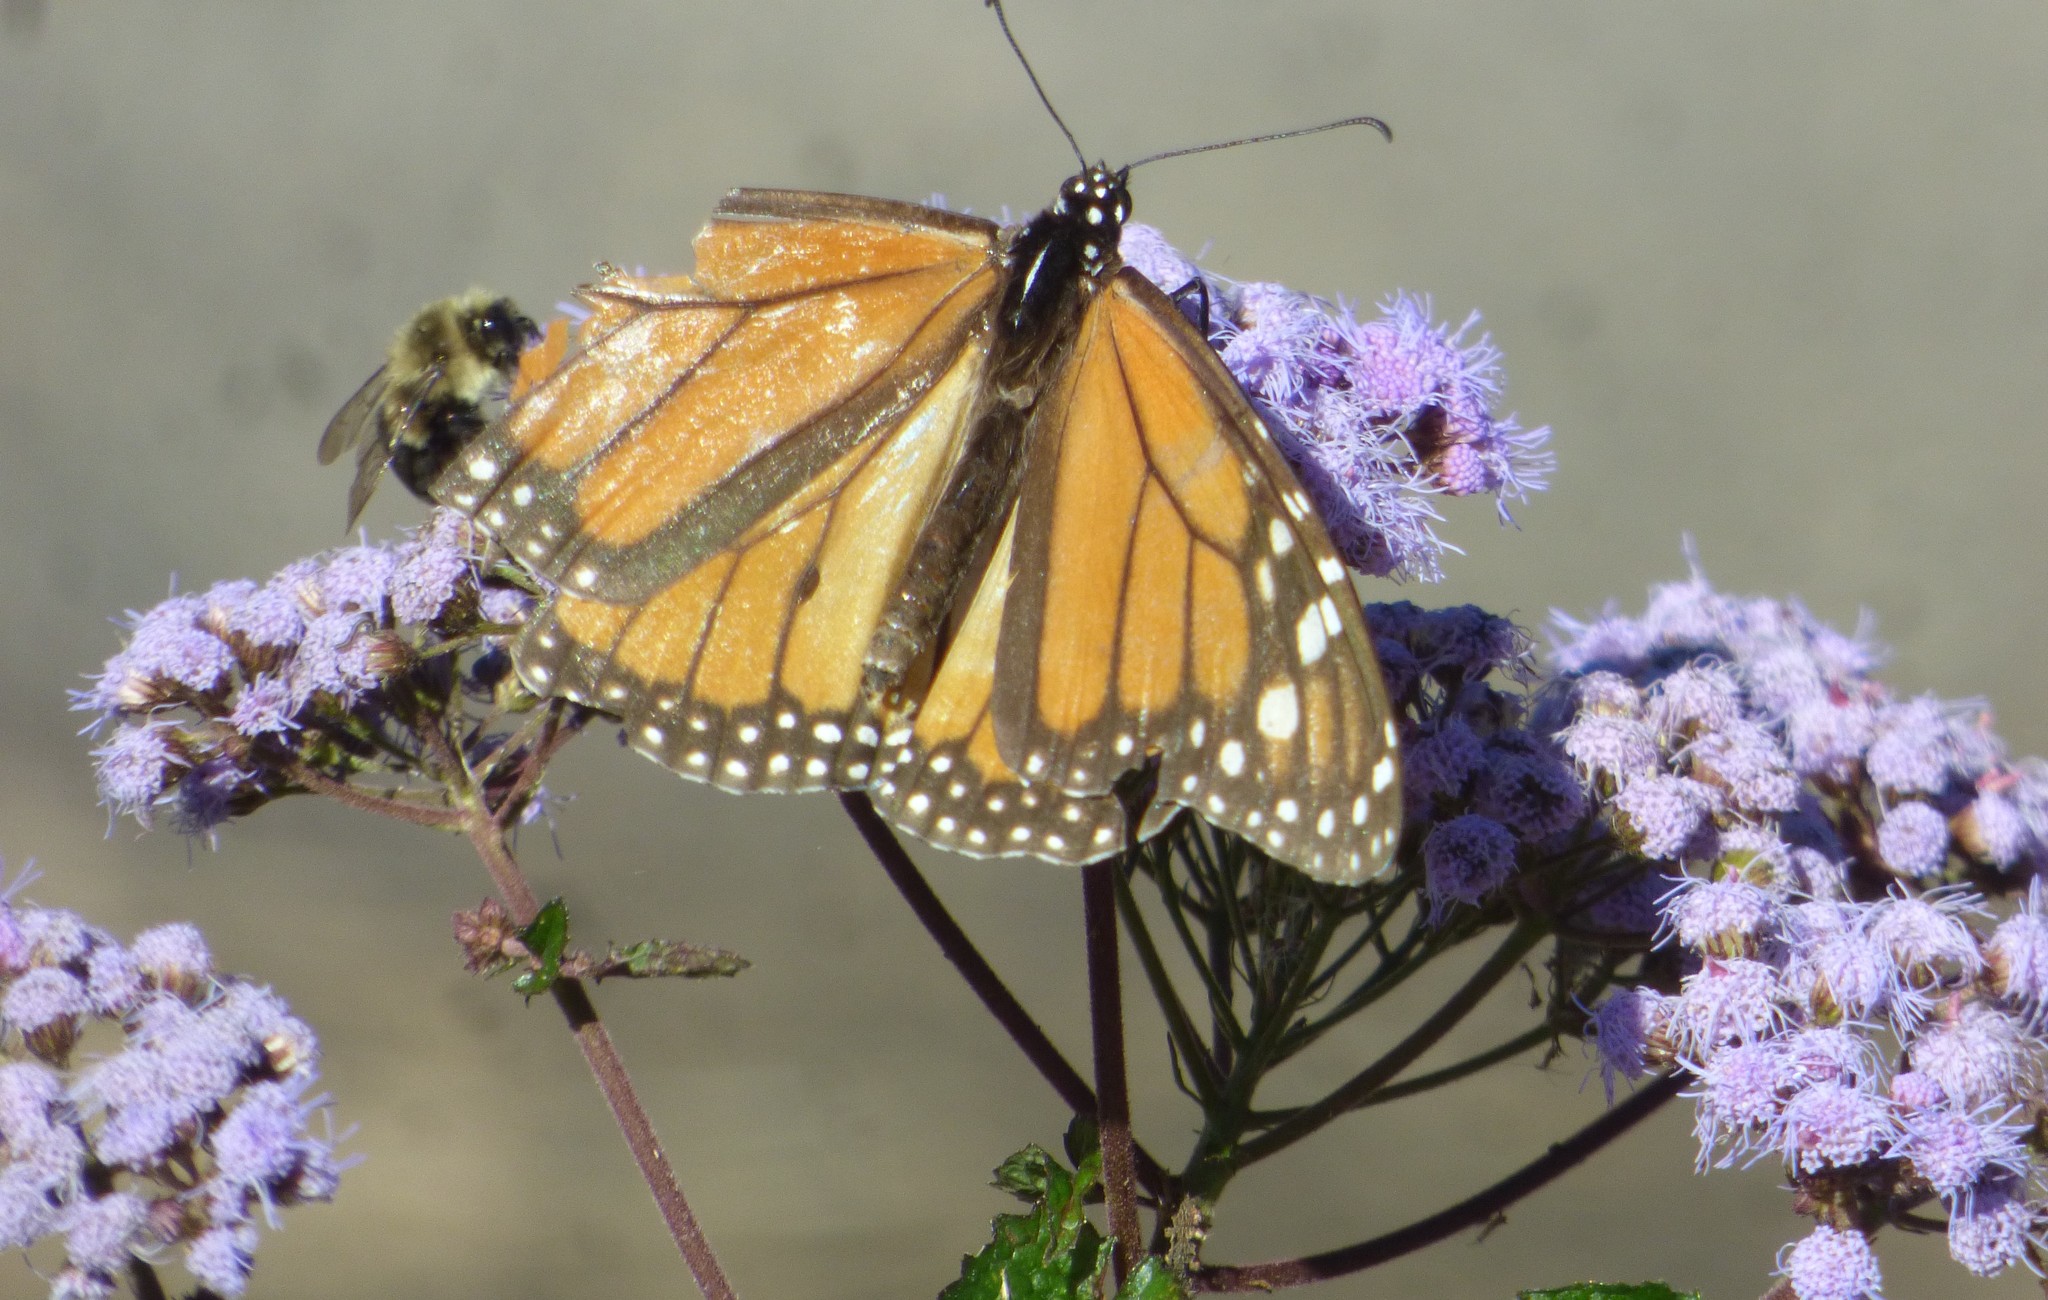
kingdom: Animalia
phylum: Arthropoda
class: Insecta
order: Lepidoptera
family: Nymphalidae
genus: Danaus
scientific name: Danaus plexippus
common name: Monarch
